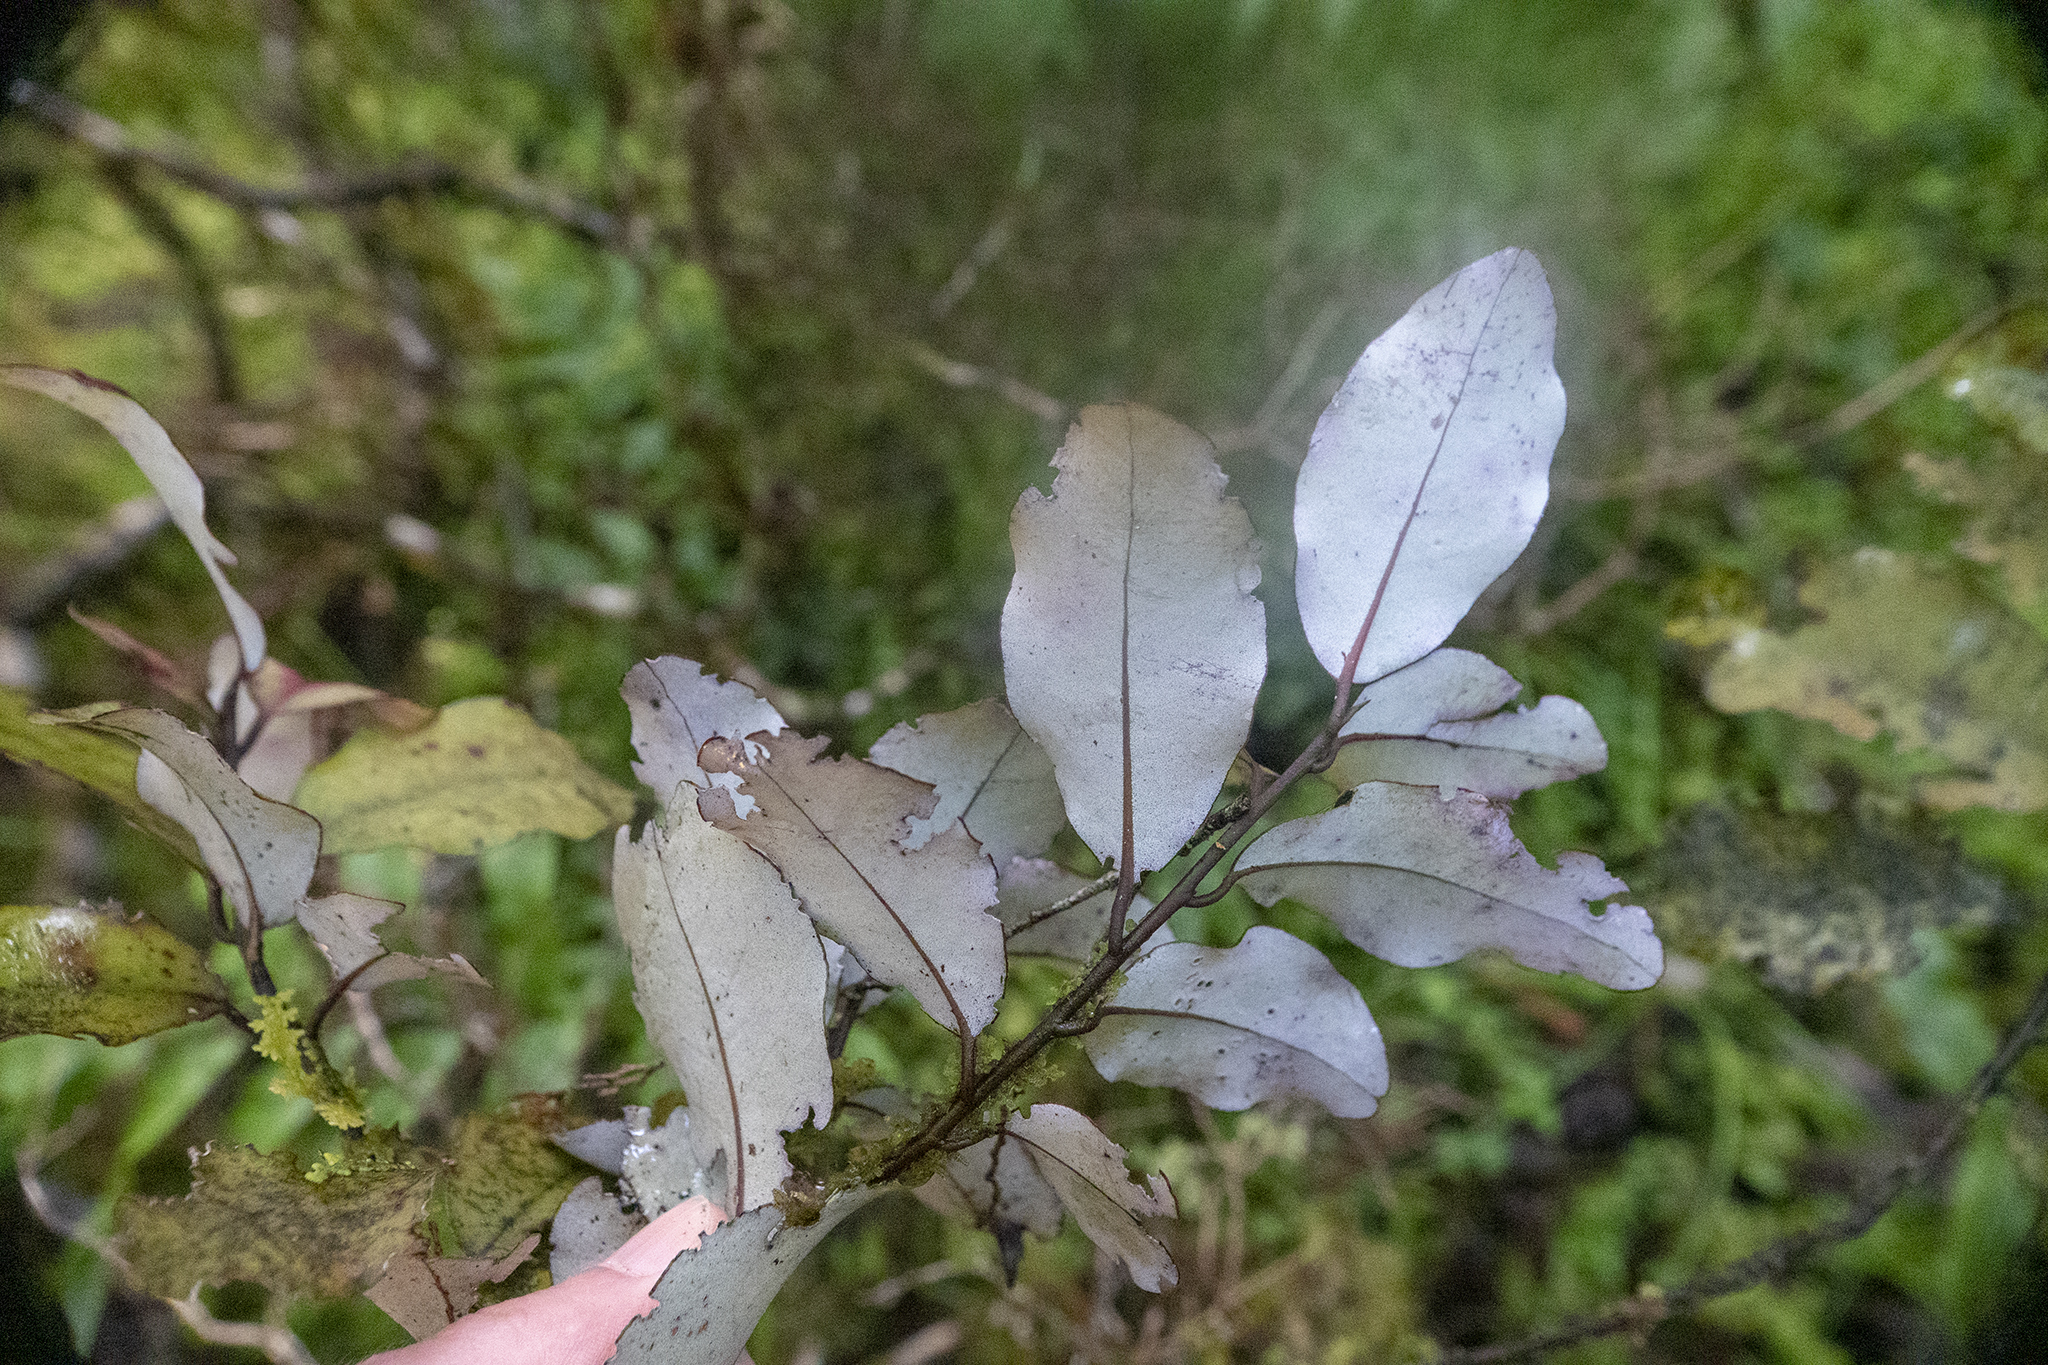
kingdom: Plantae
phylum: Tracheophyta
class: Magnoliopsida
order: Canellales
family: Winteraceae
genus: Pseudowintera
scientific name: Pseudowintera colorata
